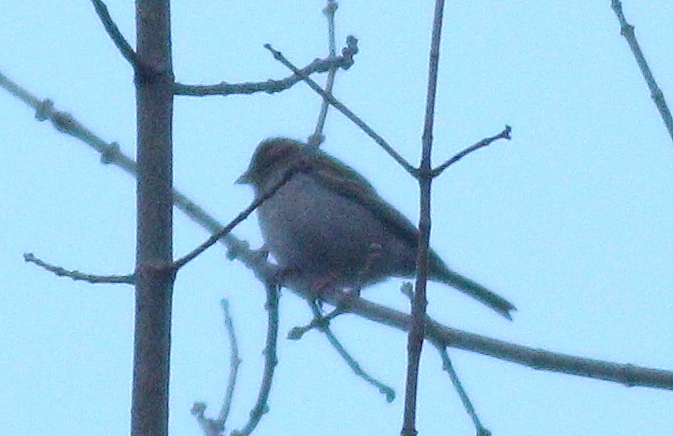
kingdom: Animalia
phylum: Chordata
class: Aves
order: Passeriformes
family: Passerellidae
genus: Spizella
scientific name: Spizella passerina
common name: Chipping sparrow
